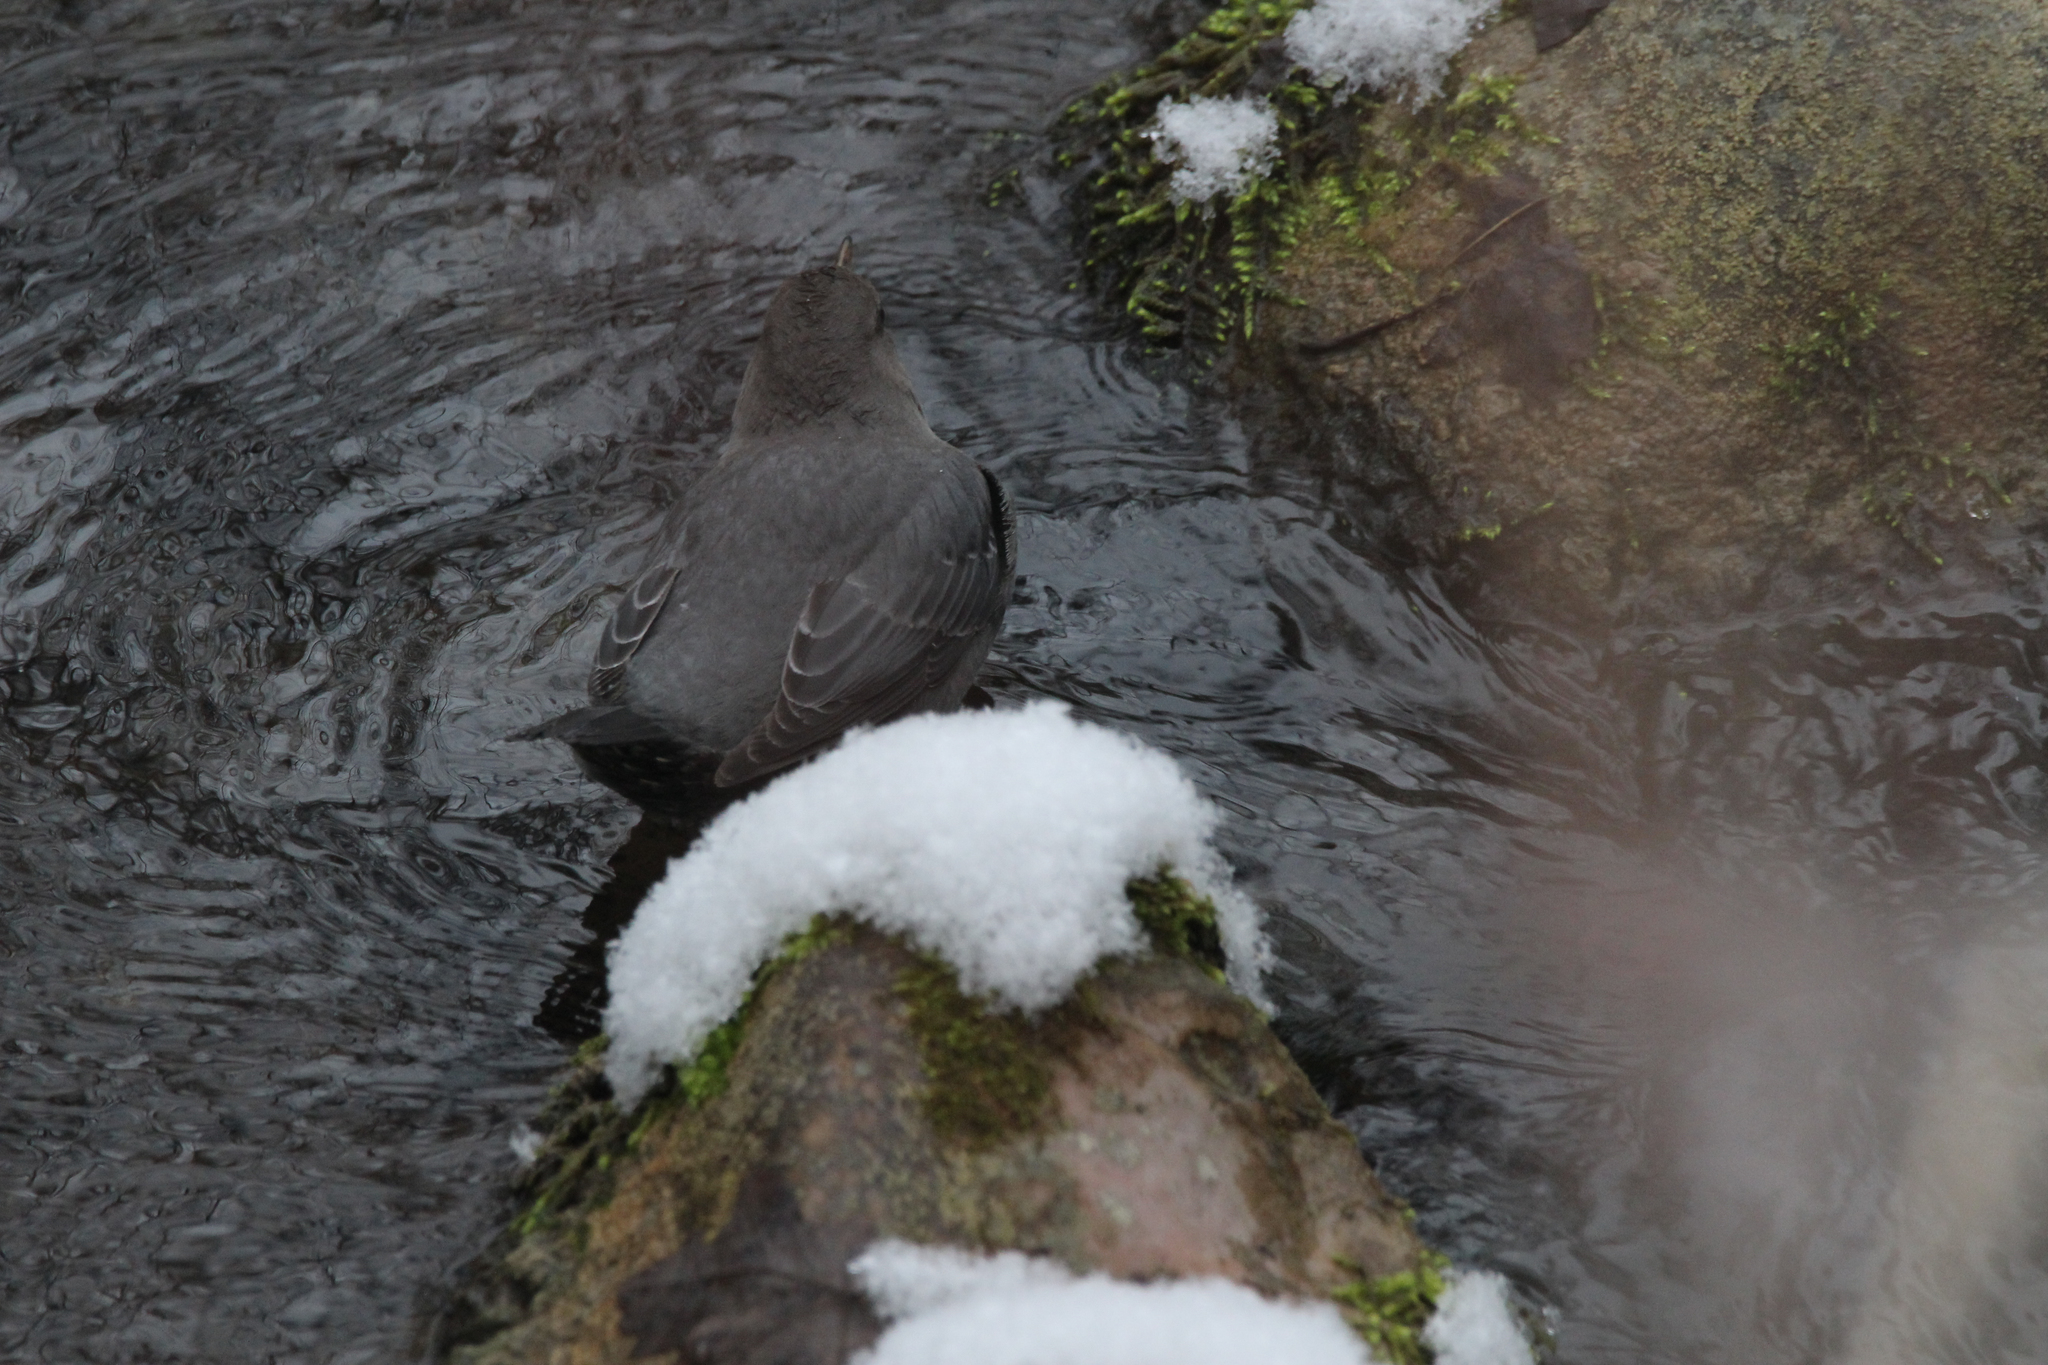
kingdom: Animalia
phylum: Chordata
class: Aves
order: Passeriformes
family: Cinclidae
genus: Cinclus
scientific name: Cinclus mexicanus
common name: American dipper
